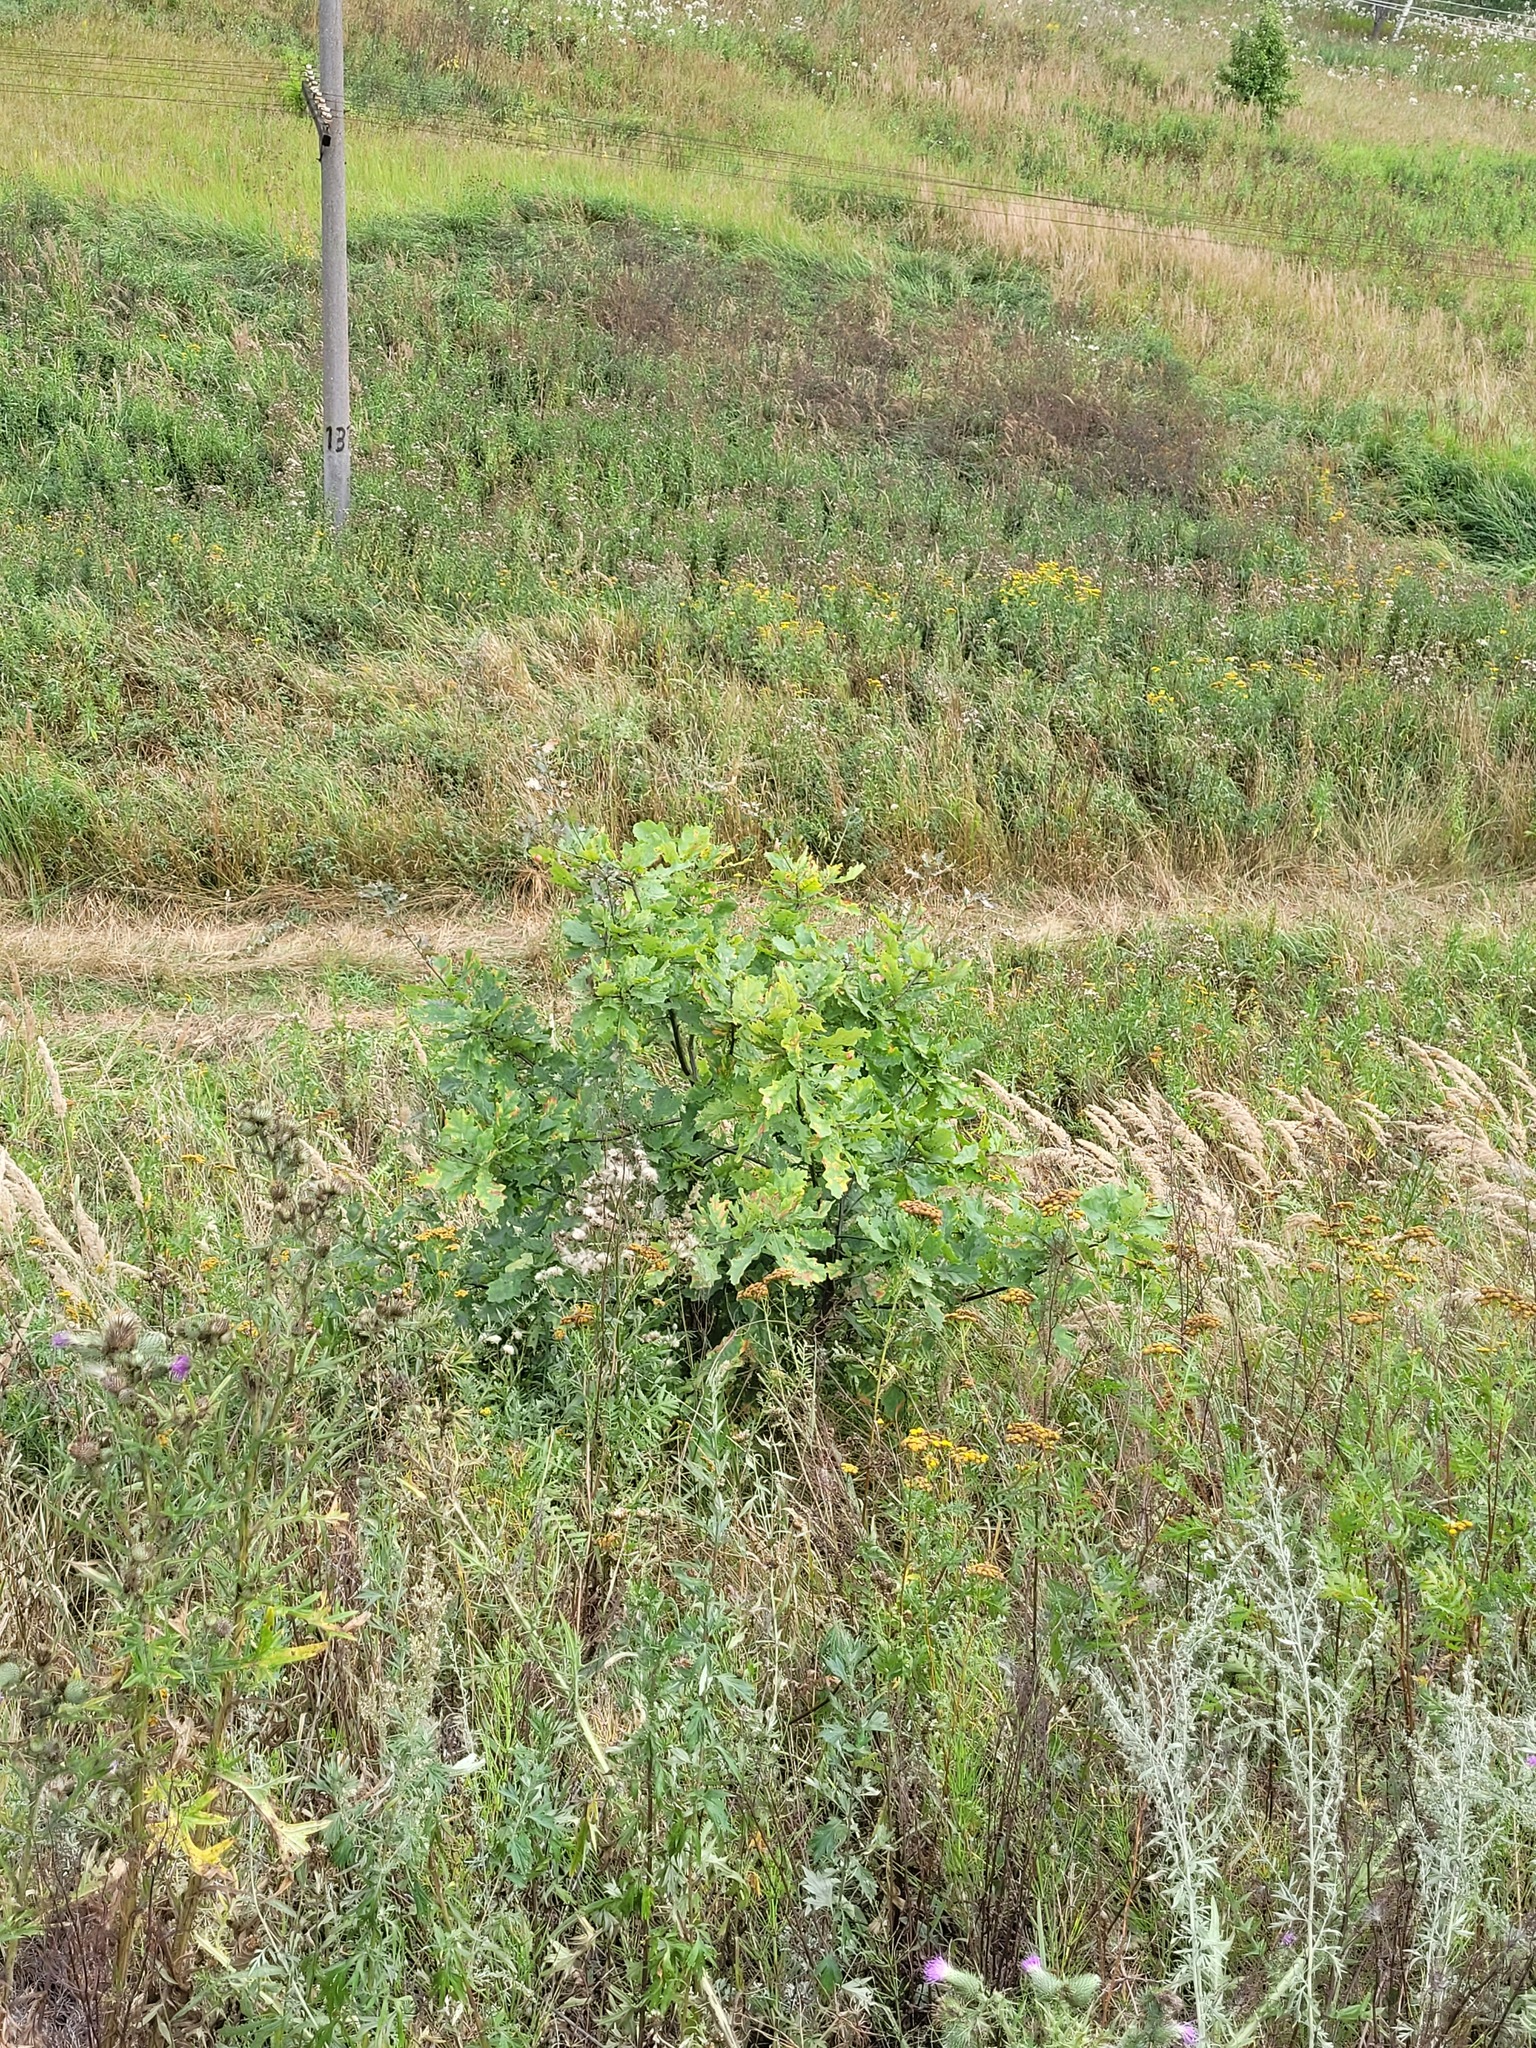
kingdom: Plantae
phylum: Tracheophyta
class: Magnoliopsida
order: Fagales
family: Fagaceae
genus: Quercus
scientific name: Quercus robur
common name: Pedunculate oak
